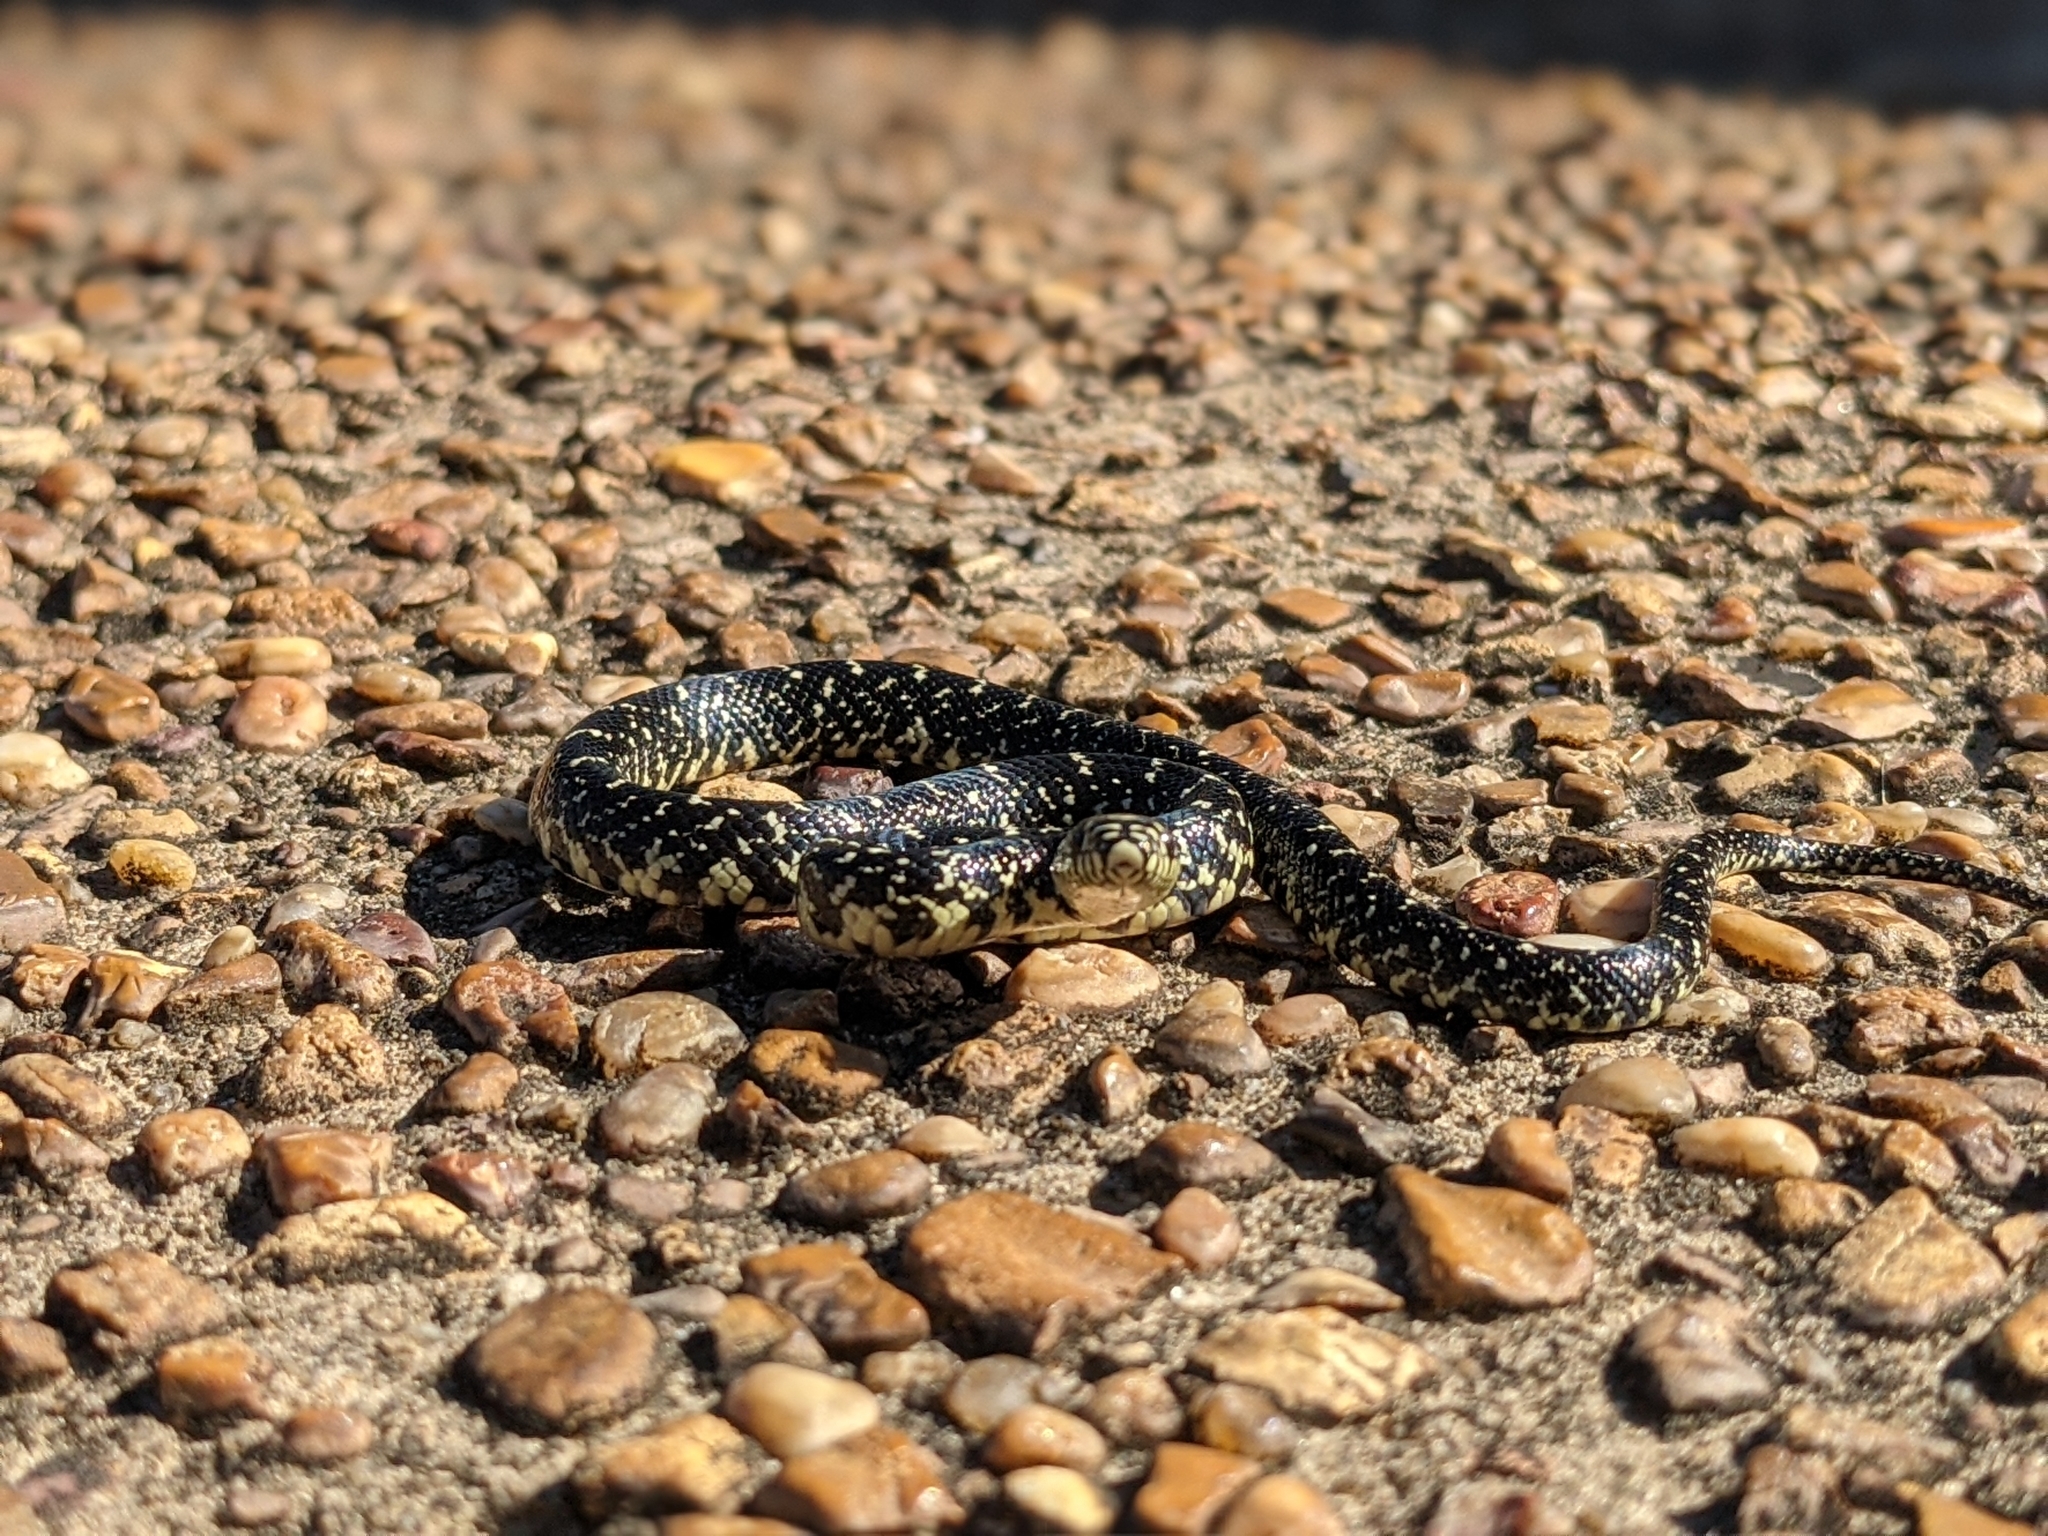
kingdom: Animalia
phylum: Chordata
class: Squamata
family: Colubridae
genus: Lampropeltis
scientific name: Lampropeltis holbrooki
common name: Speckled kingsnake
